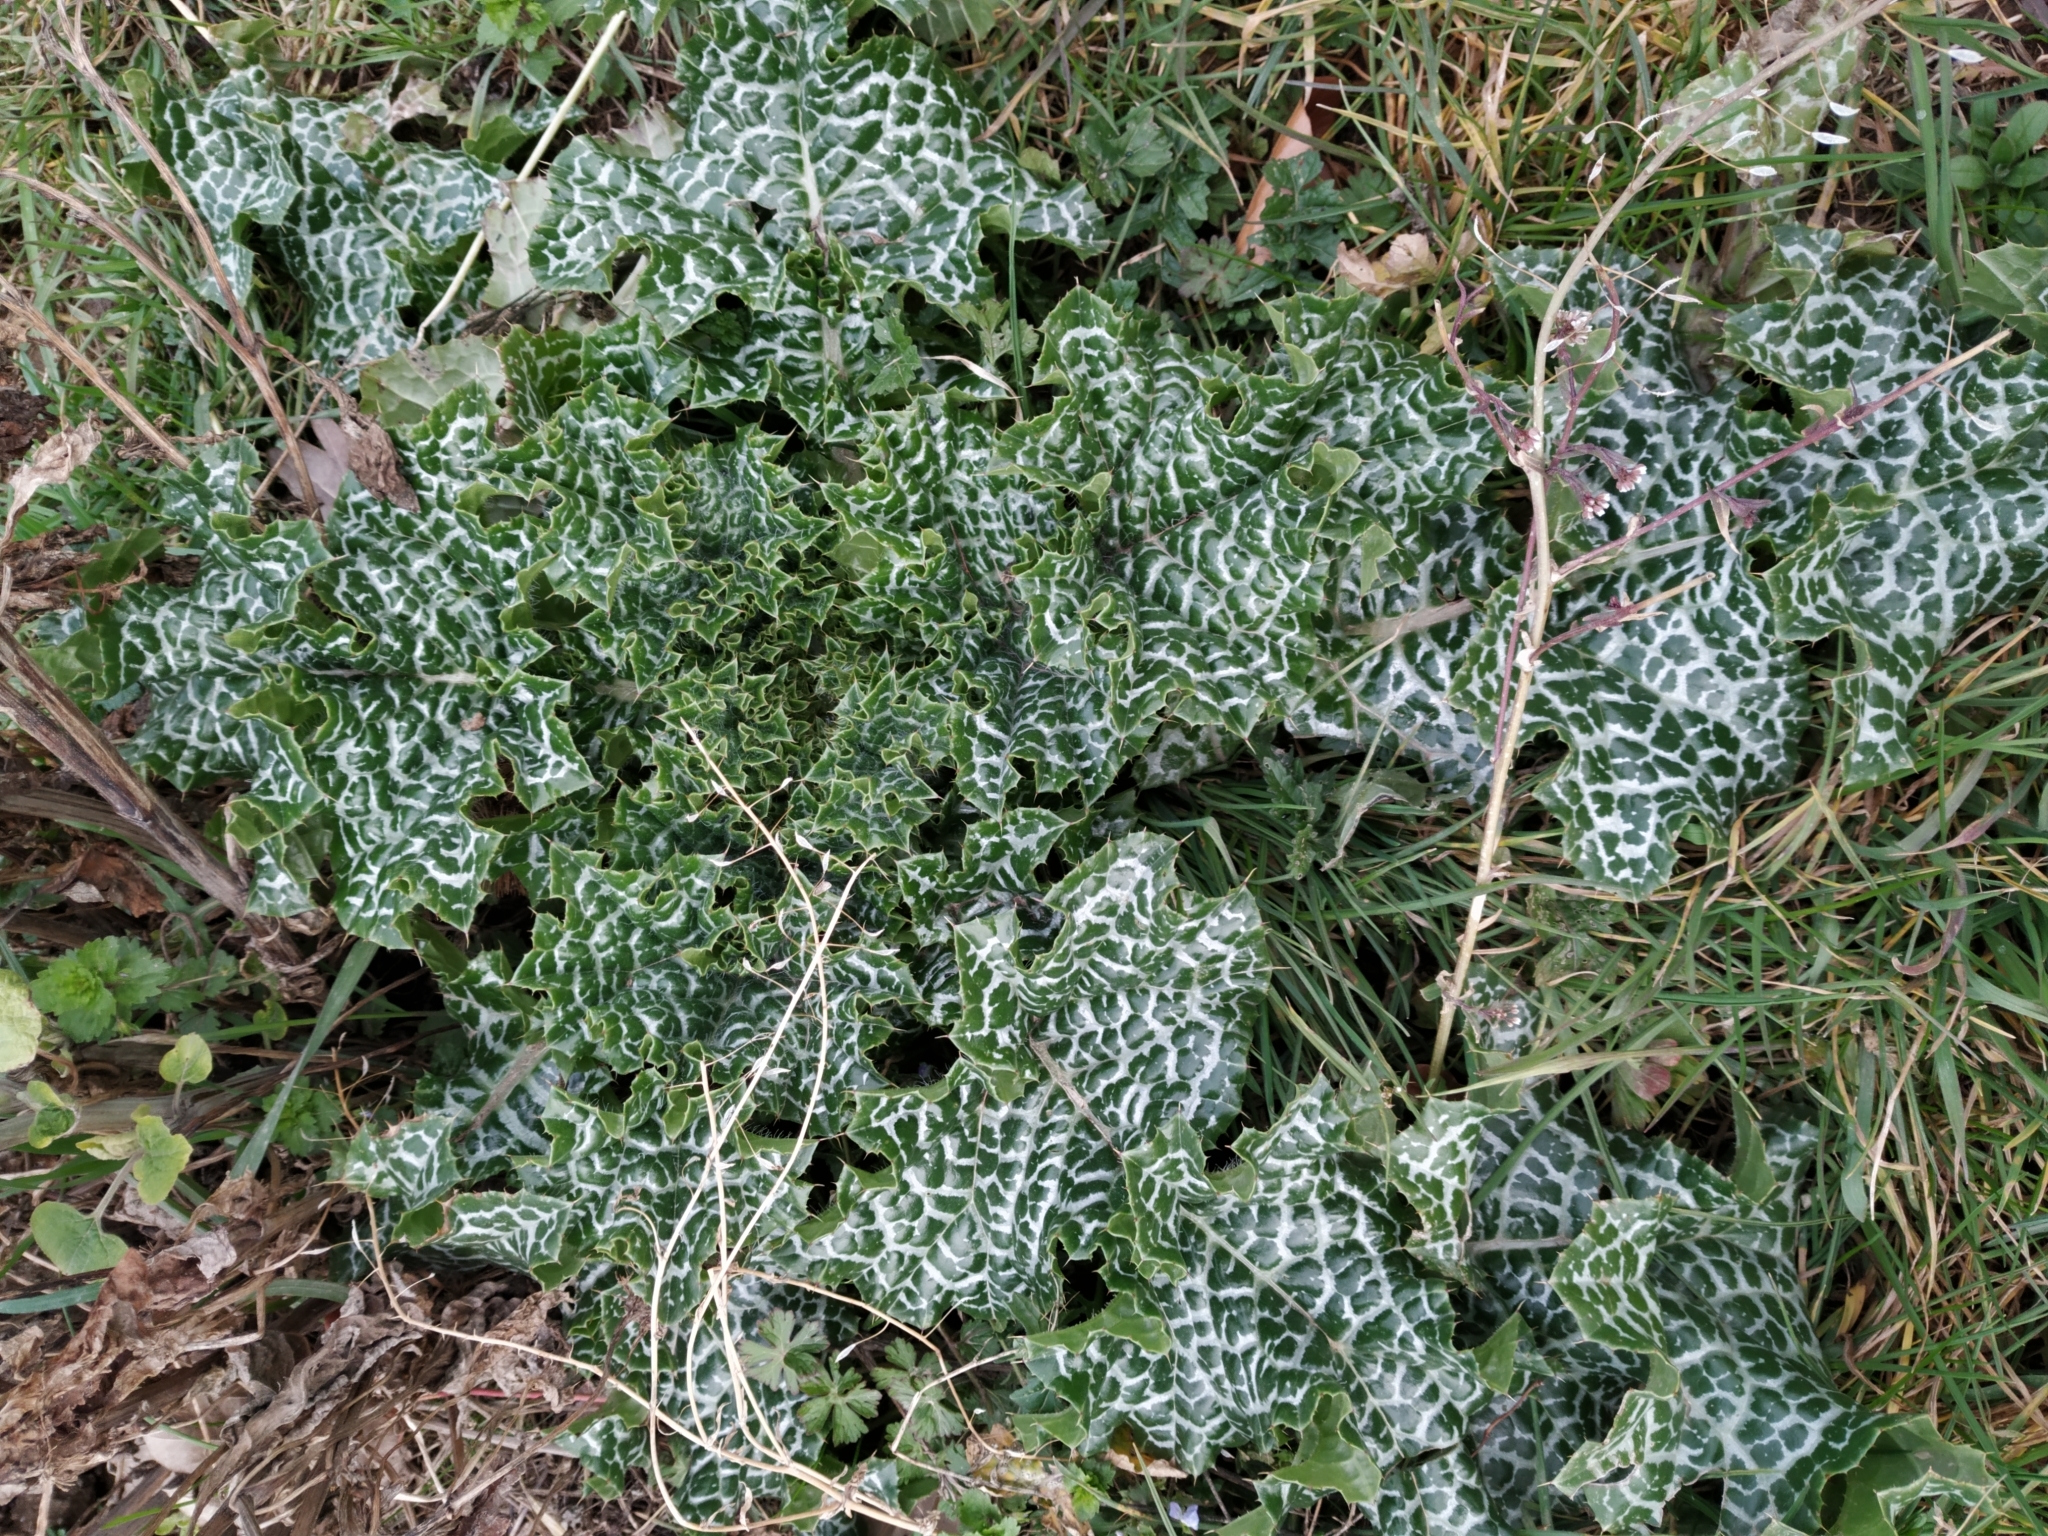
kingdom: Plantae
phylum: Tracheophyta
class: Magnoliopsida
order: Asterales
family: Asteraceae
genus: Silybum
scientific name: Silybum marianum
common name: Milk thistle
